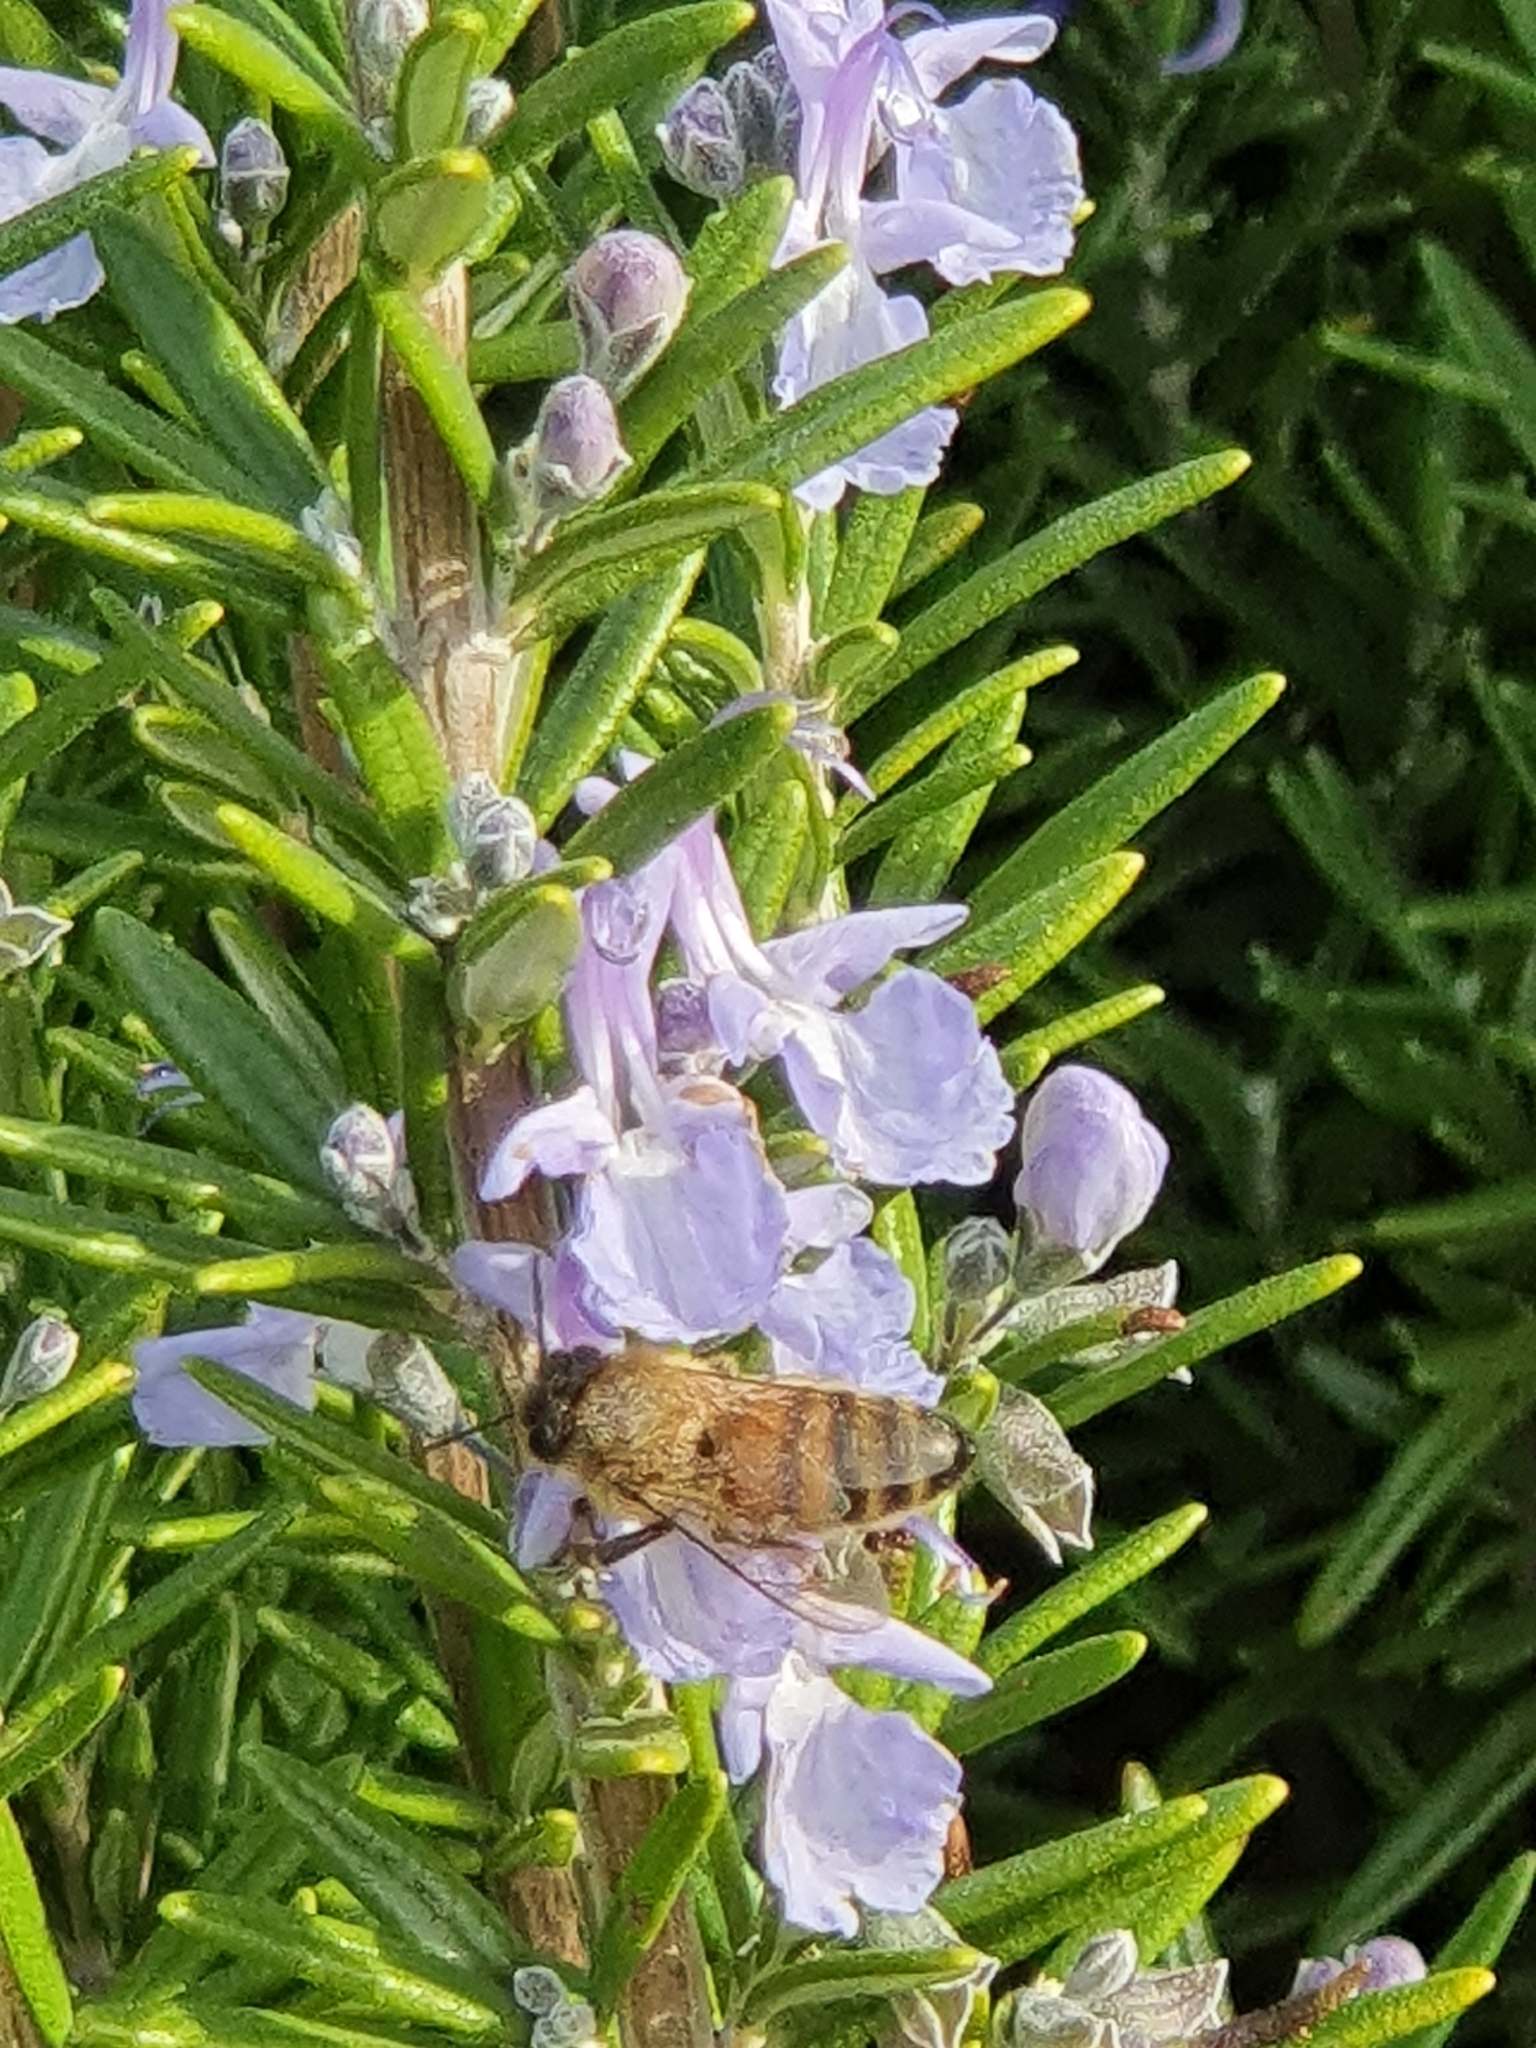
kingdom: Animalia
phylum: Arthropoda
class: Insecta
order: Hymenoptera
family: Apidae
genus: Apis
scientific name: Apis mellifera
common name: Honey bee
